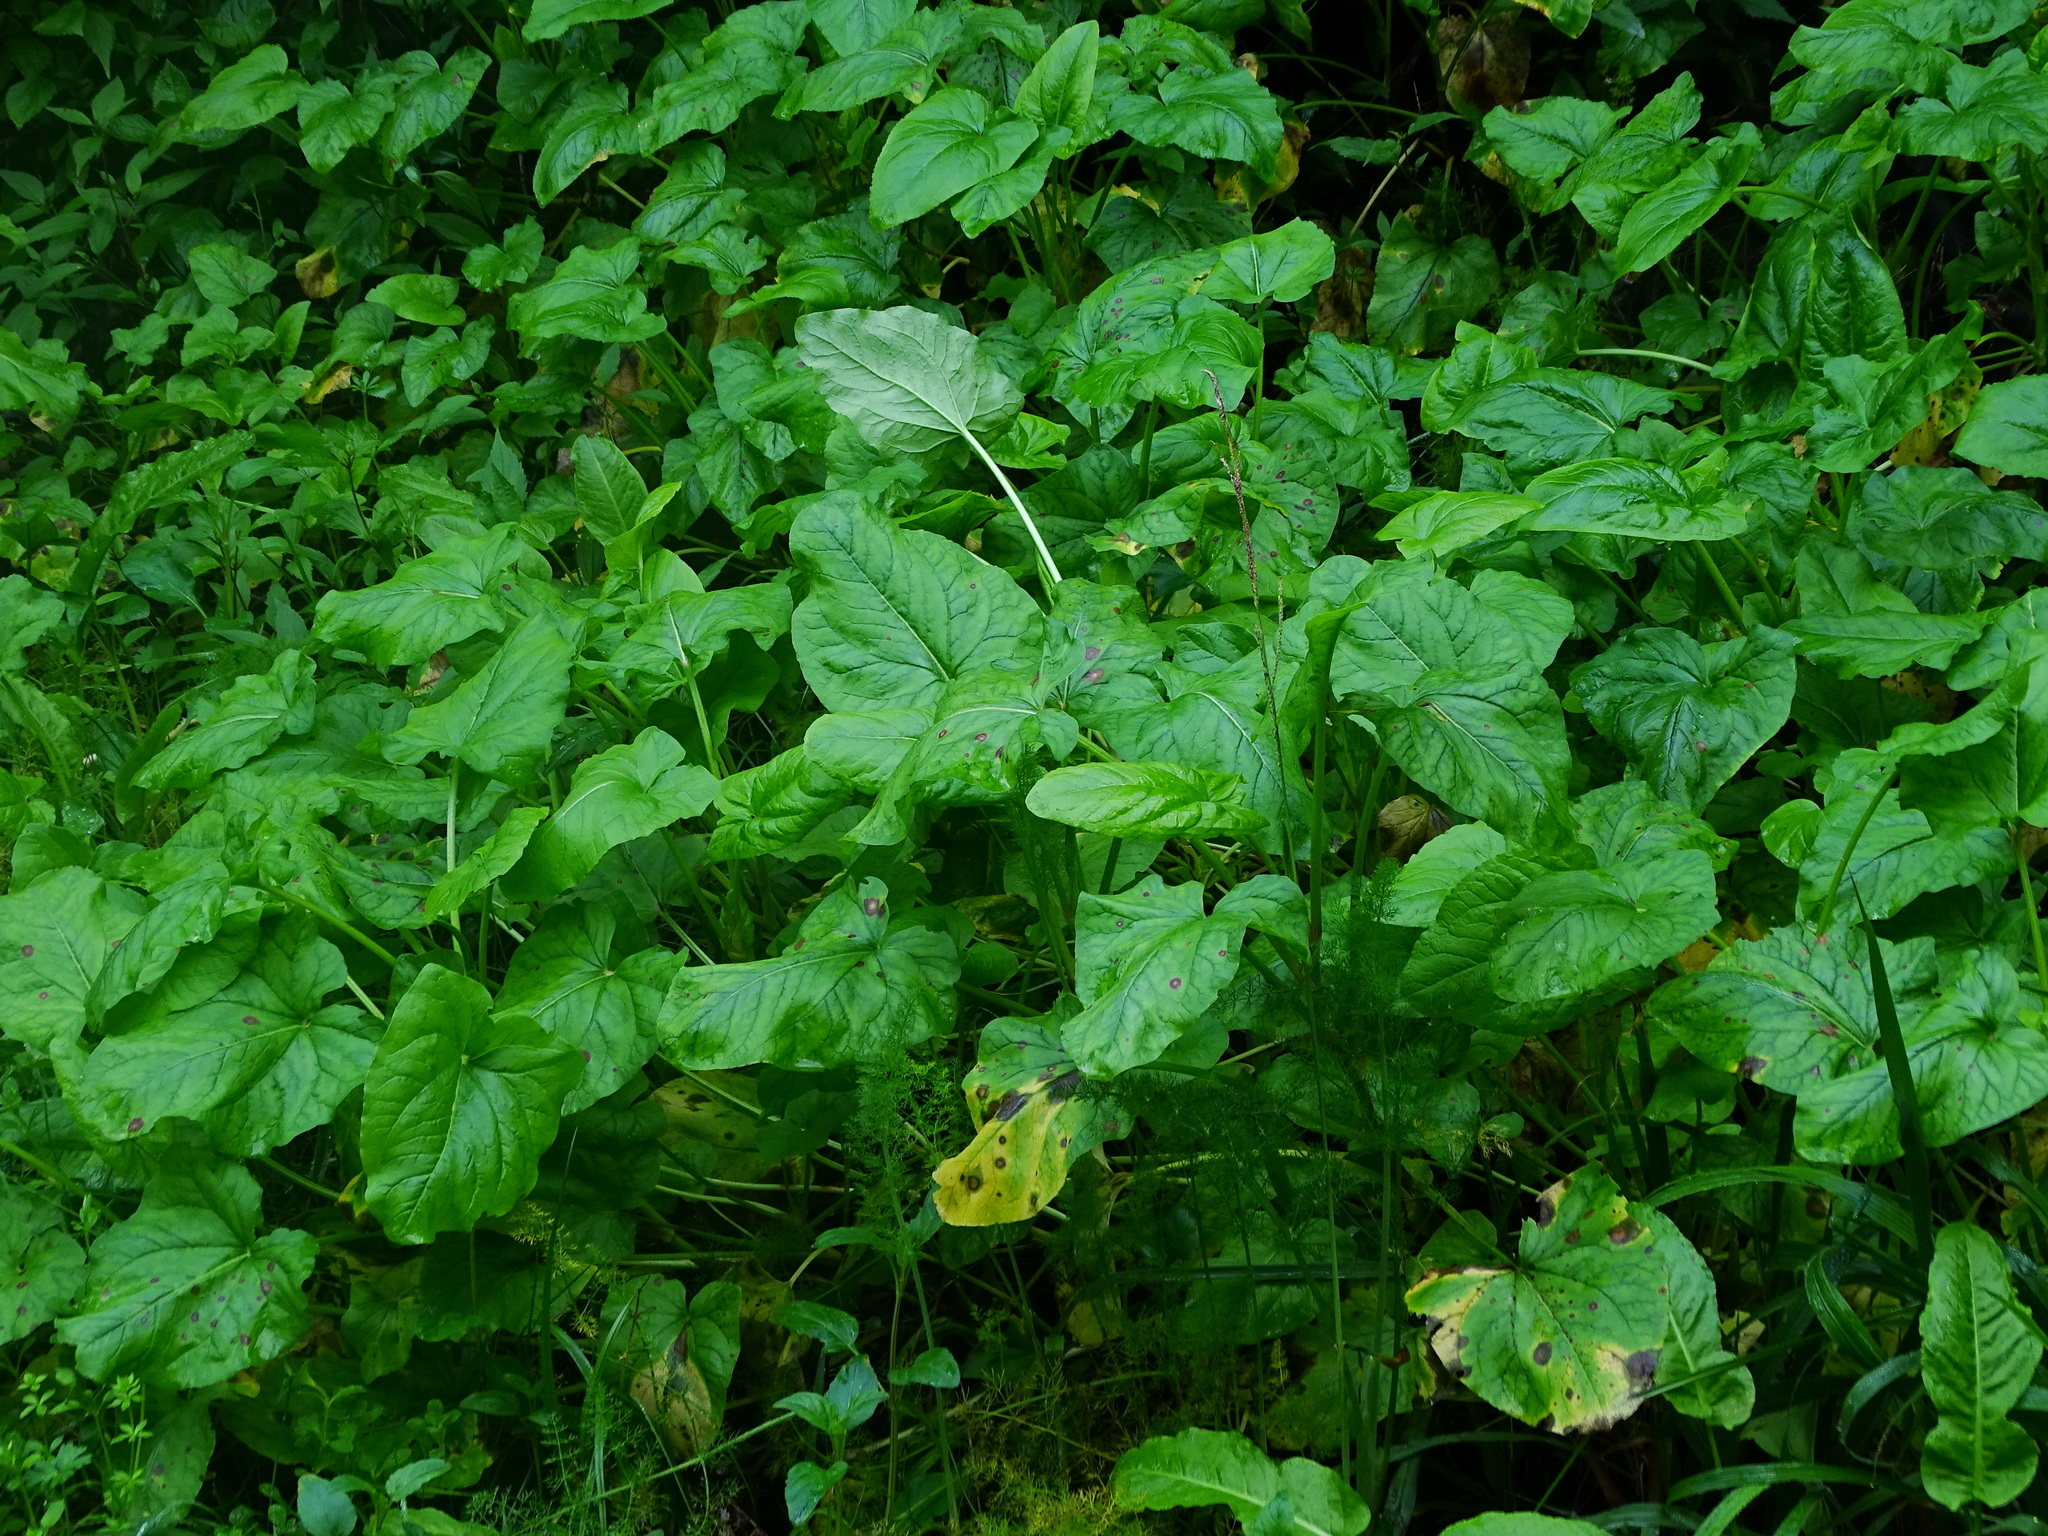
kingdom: Plantae
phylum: Tracheophyta
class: Magnoliopsida
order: Caryophyllales
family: Polygonaceae
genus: Rumex
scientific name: Rumex maderensis
